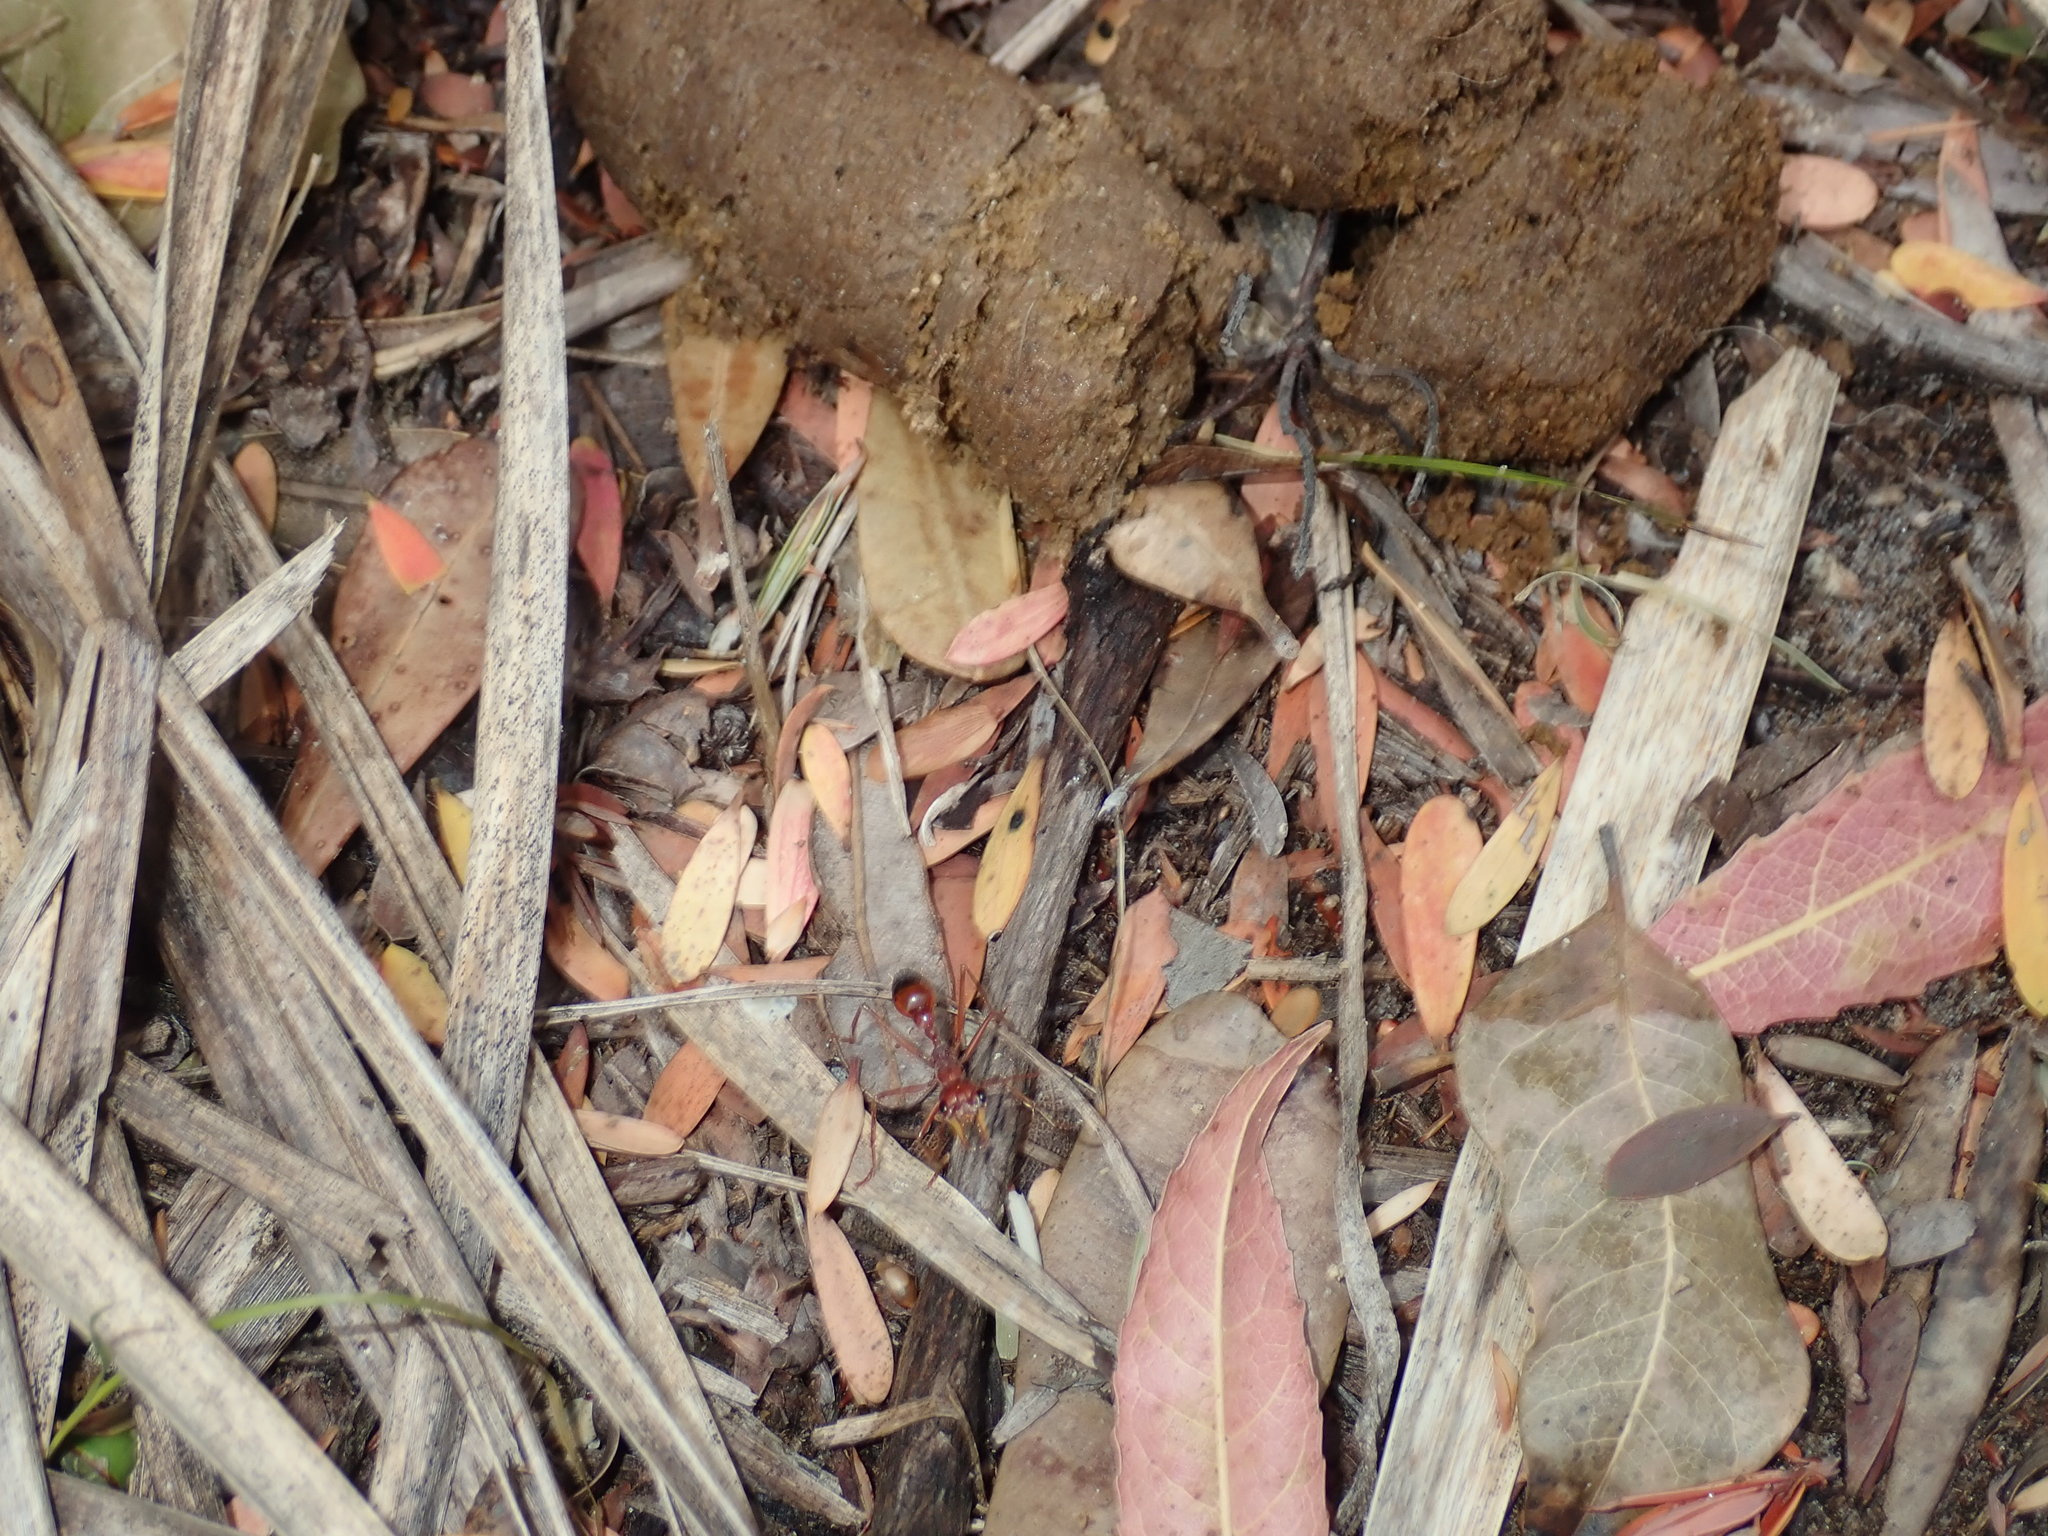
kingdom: Animalia
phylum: Arthropoda
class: Insecta
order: Hymenoptera
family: Formicidae
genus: Myrmecia
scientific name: Myrmecia gulosa
